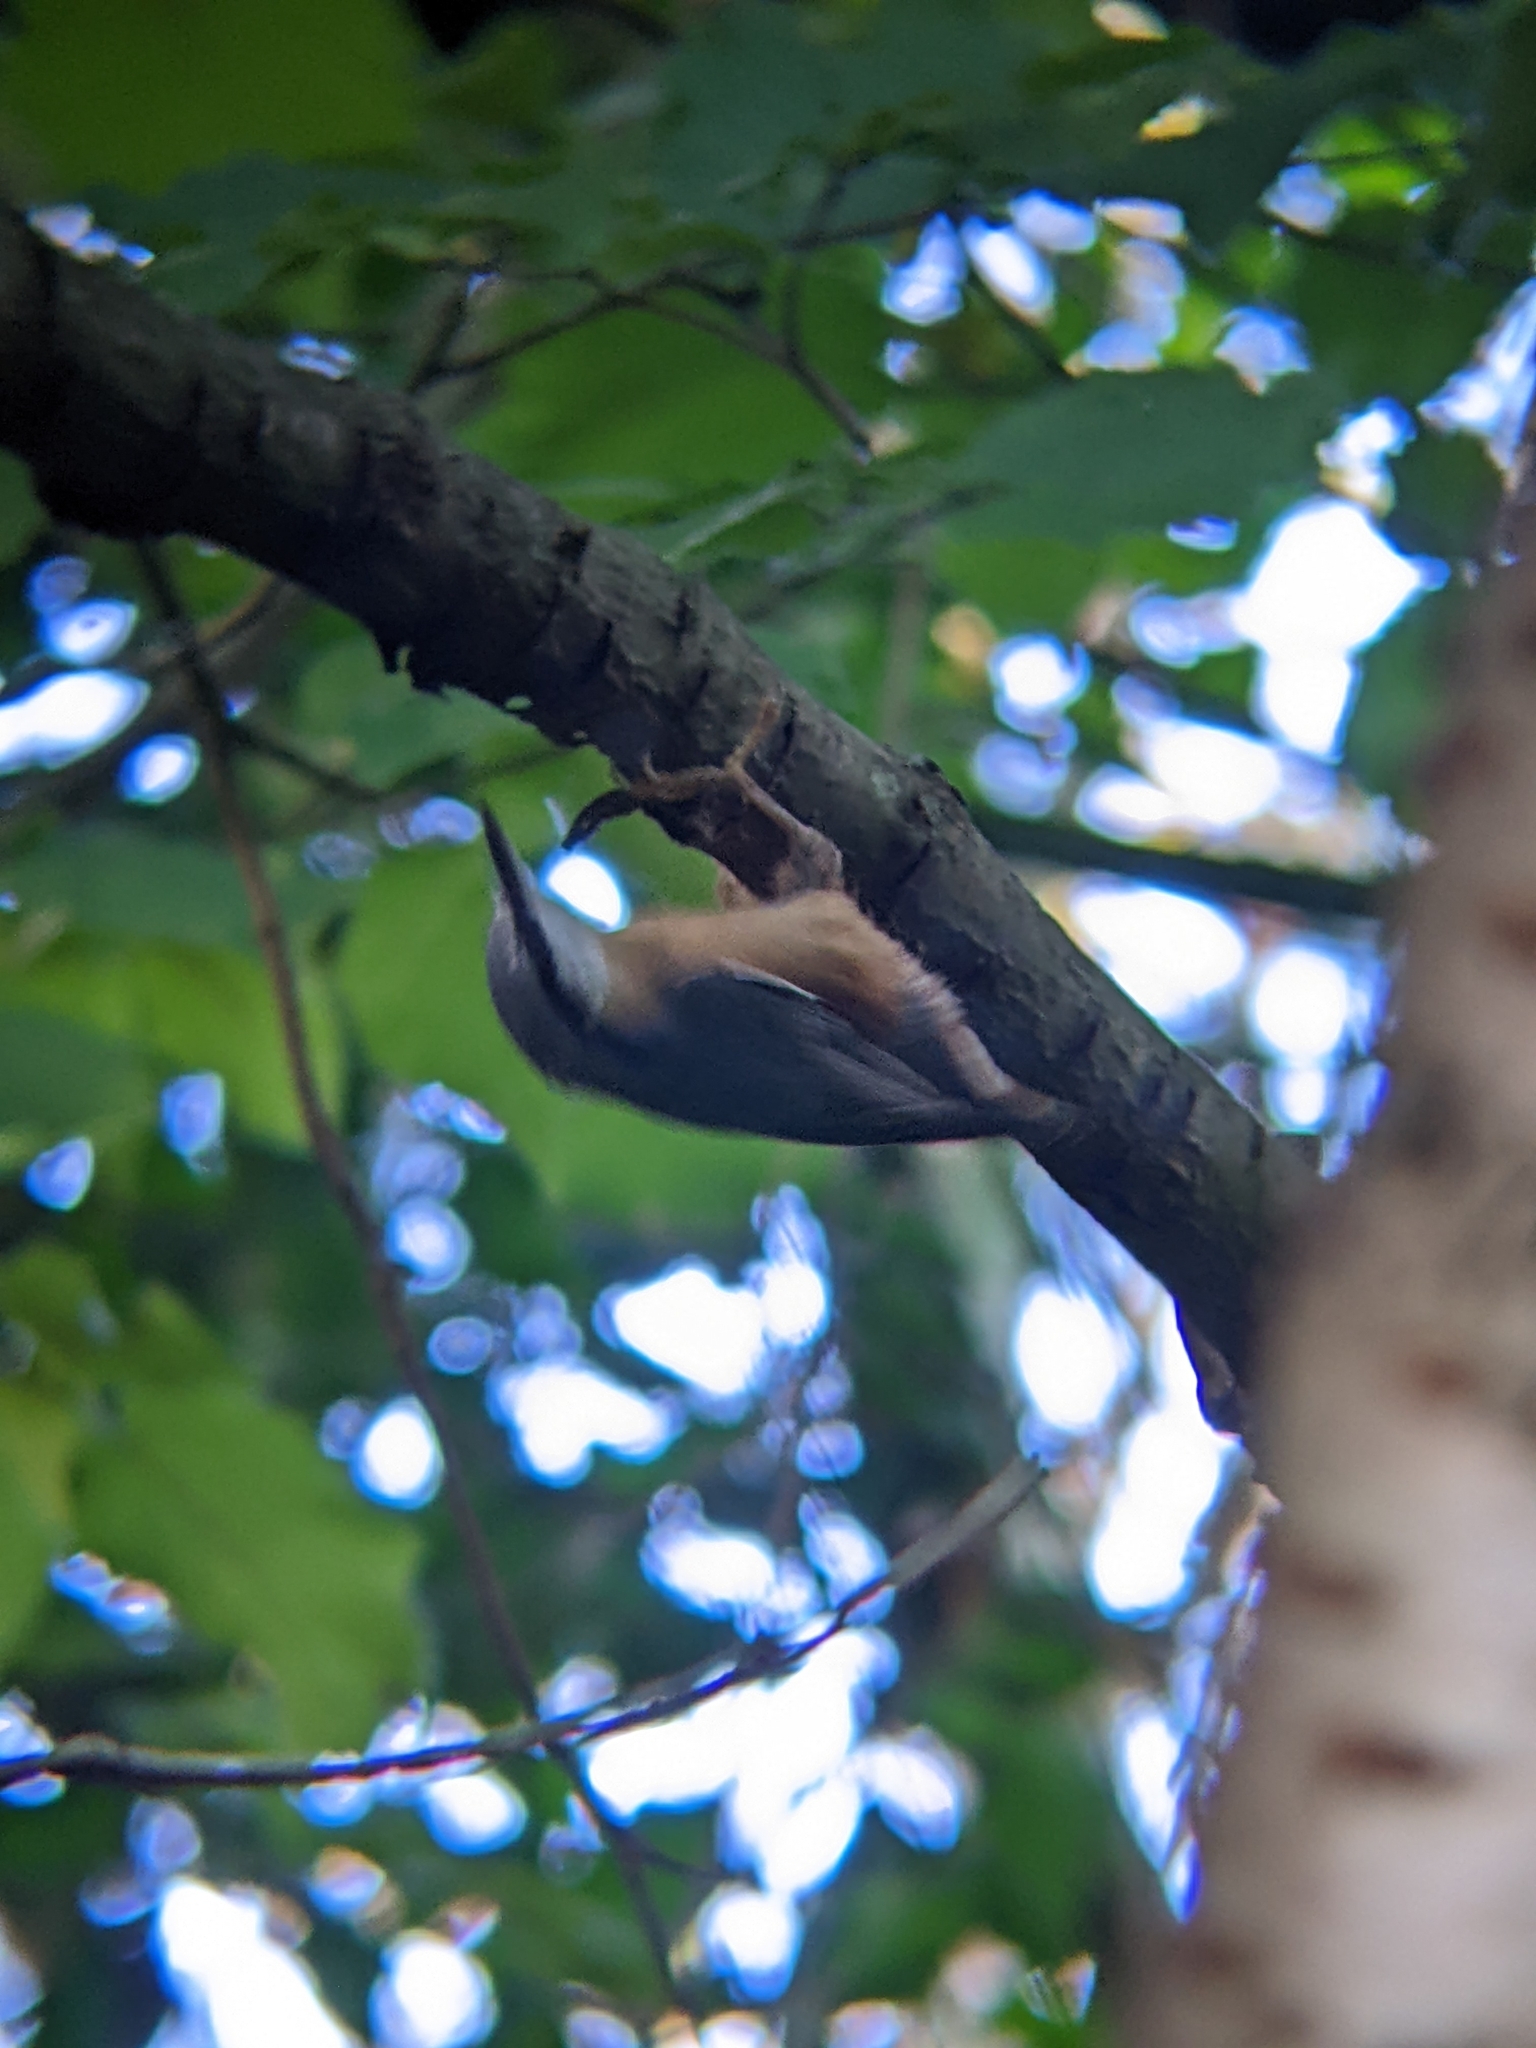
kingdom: Animalia
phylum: Chordata
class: Aves
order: Passeriformes
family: Sittidae
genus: Sitta
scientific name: Sitta europaea
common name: Eurasian nuthatch
